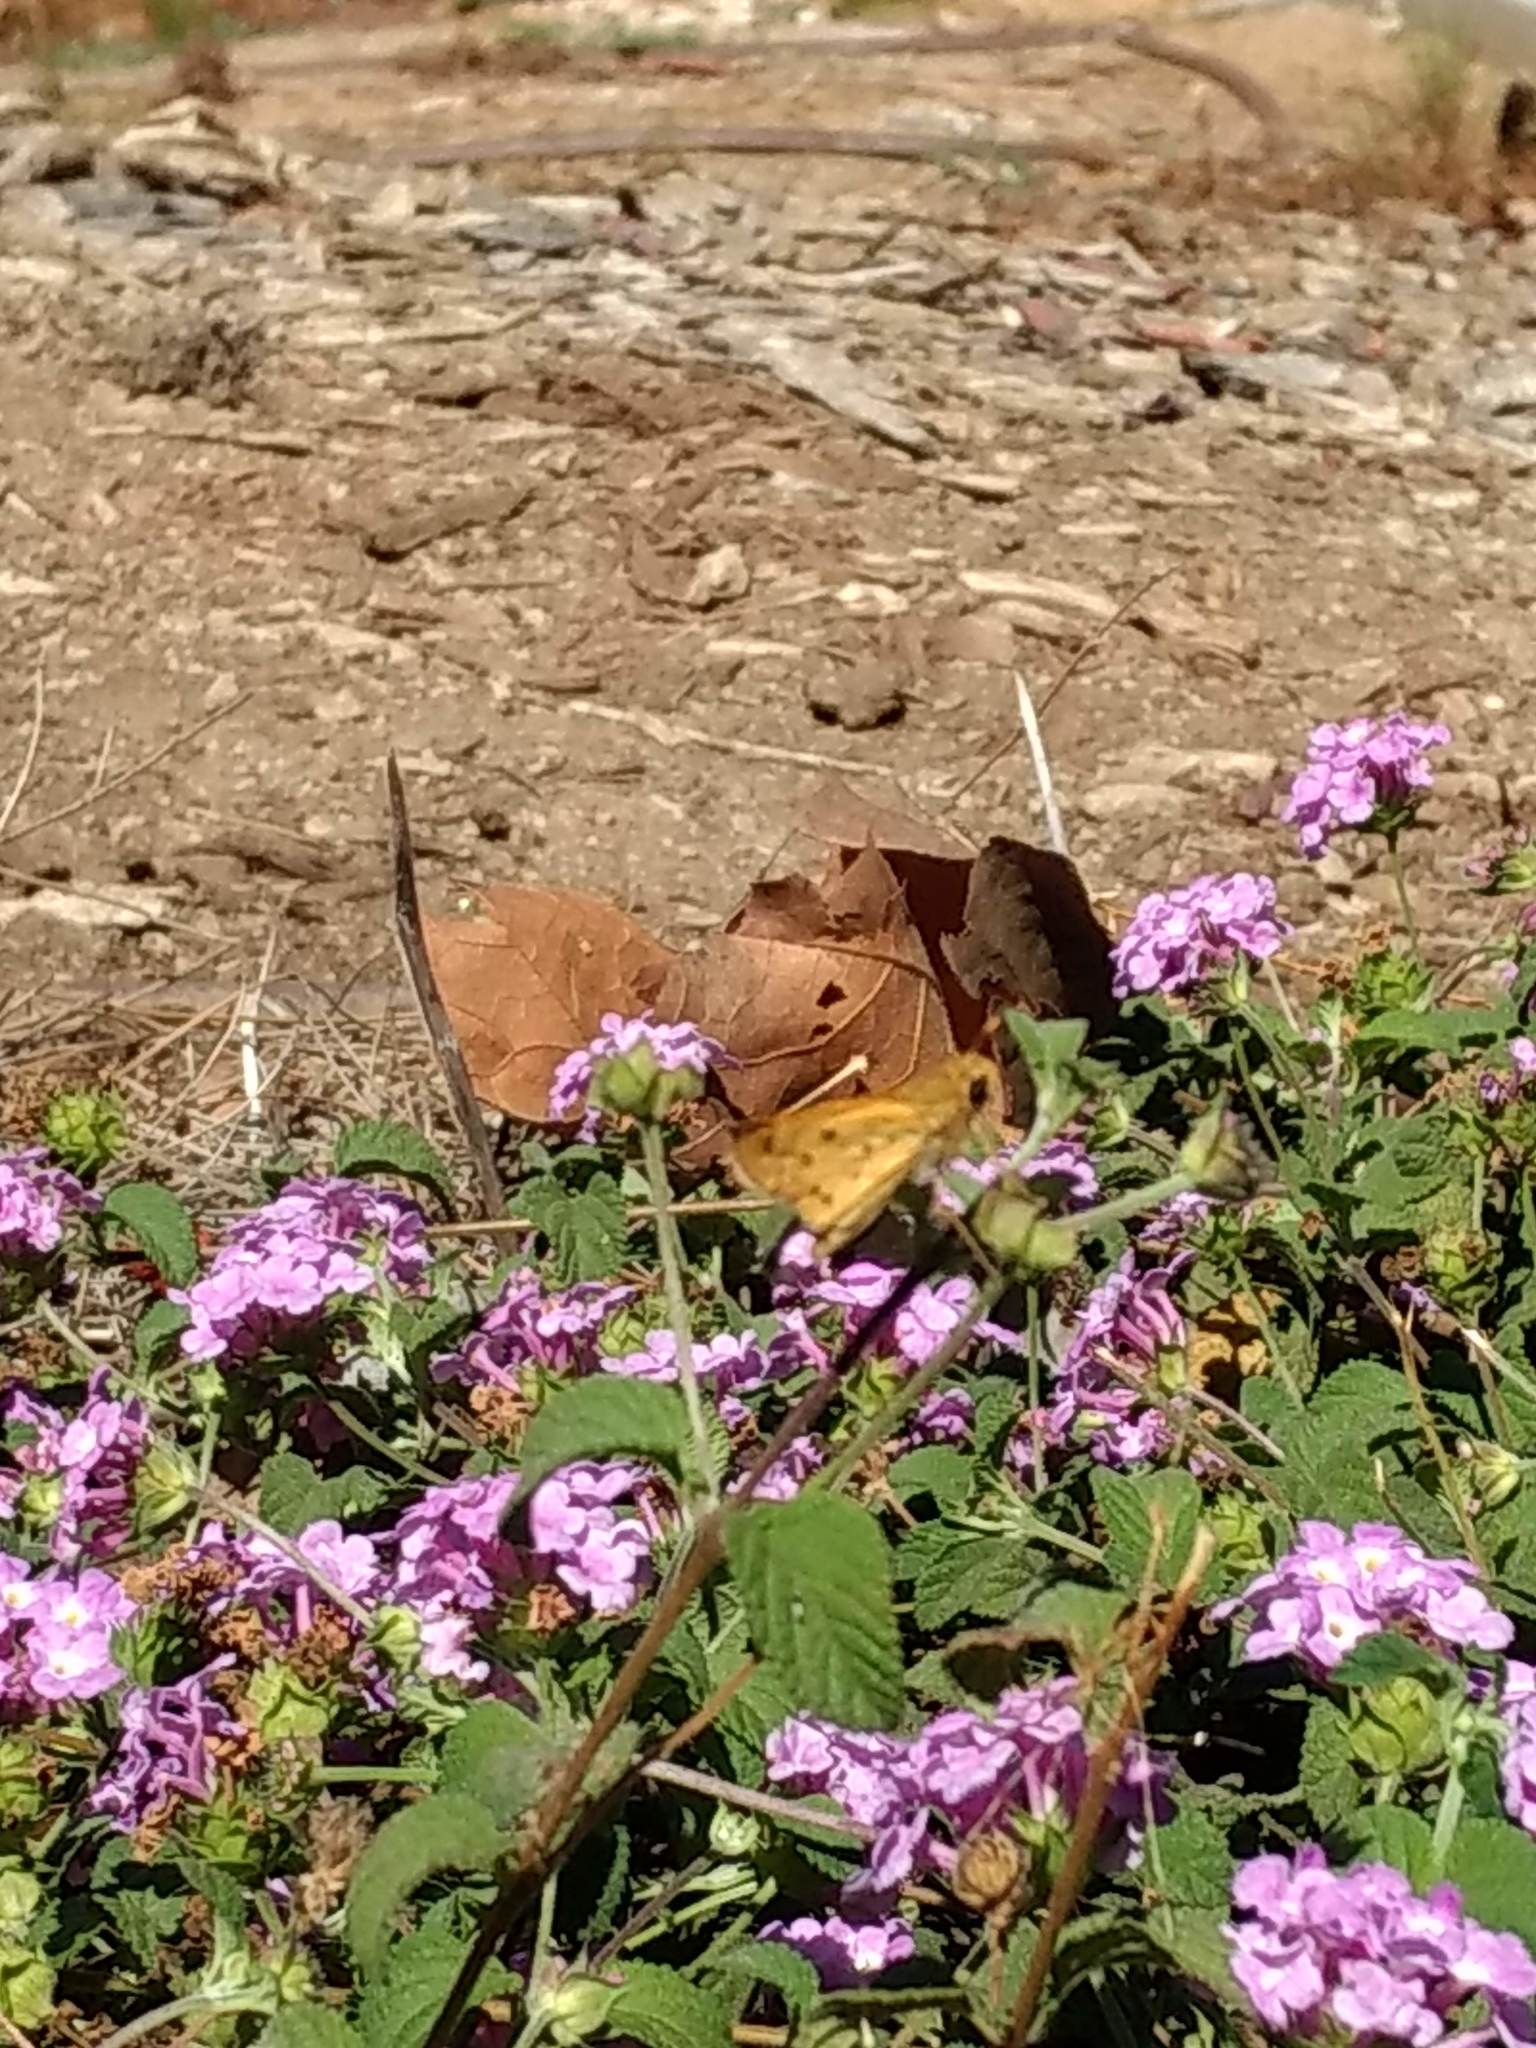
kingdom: Animalia
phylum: Arthropoda
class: Insecta
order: Lepidoptera
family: Hesperiidae
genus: Hylephila
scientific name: Hylephila phyleus
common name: Fiery skipper
